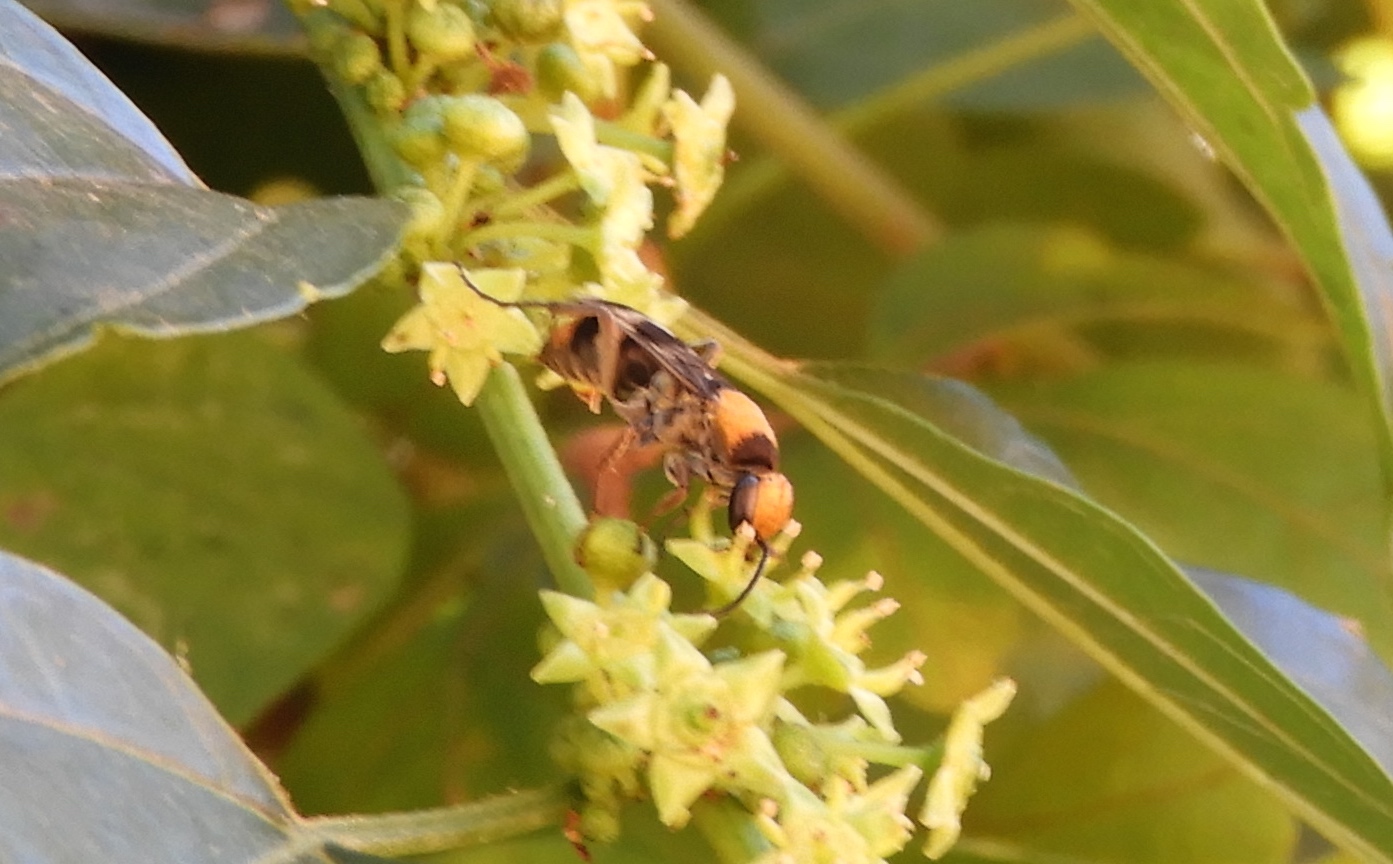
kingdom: Animalia
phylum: Arthropoda
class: Insecta
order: Hymenoptera
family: Pompilidae
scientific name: Pompilidae
